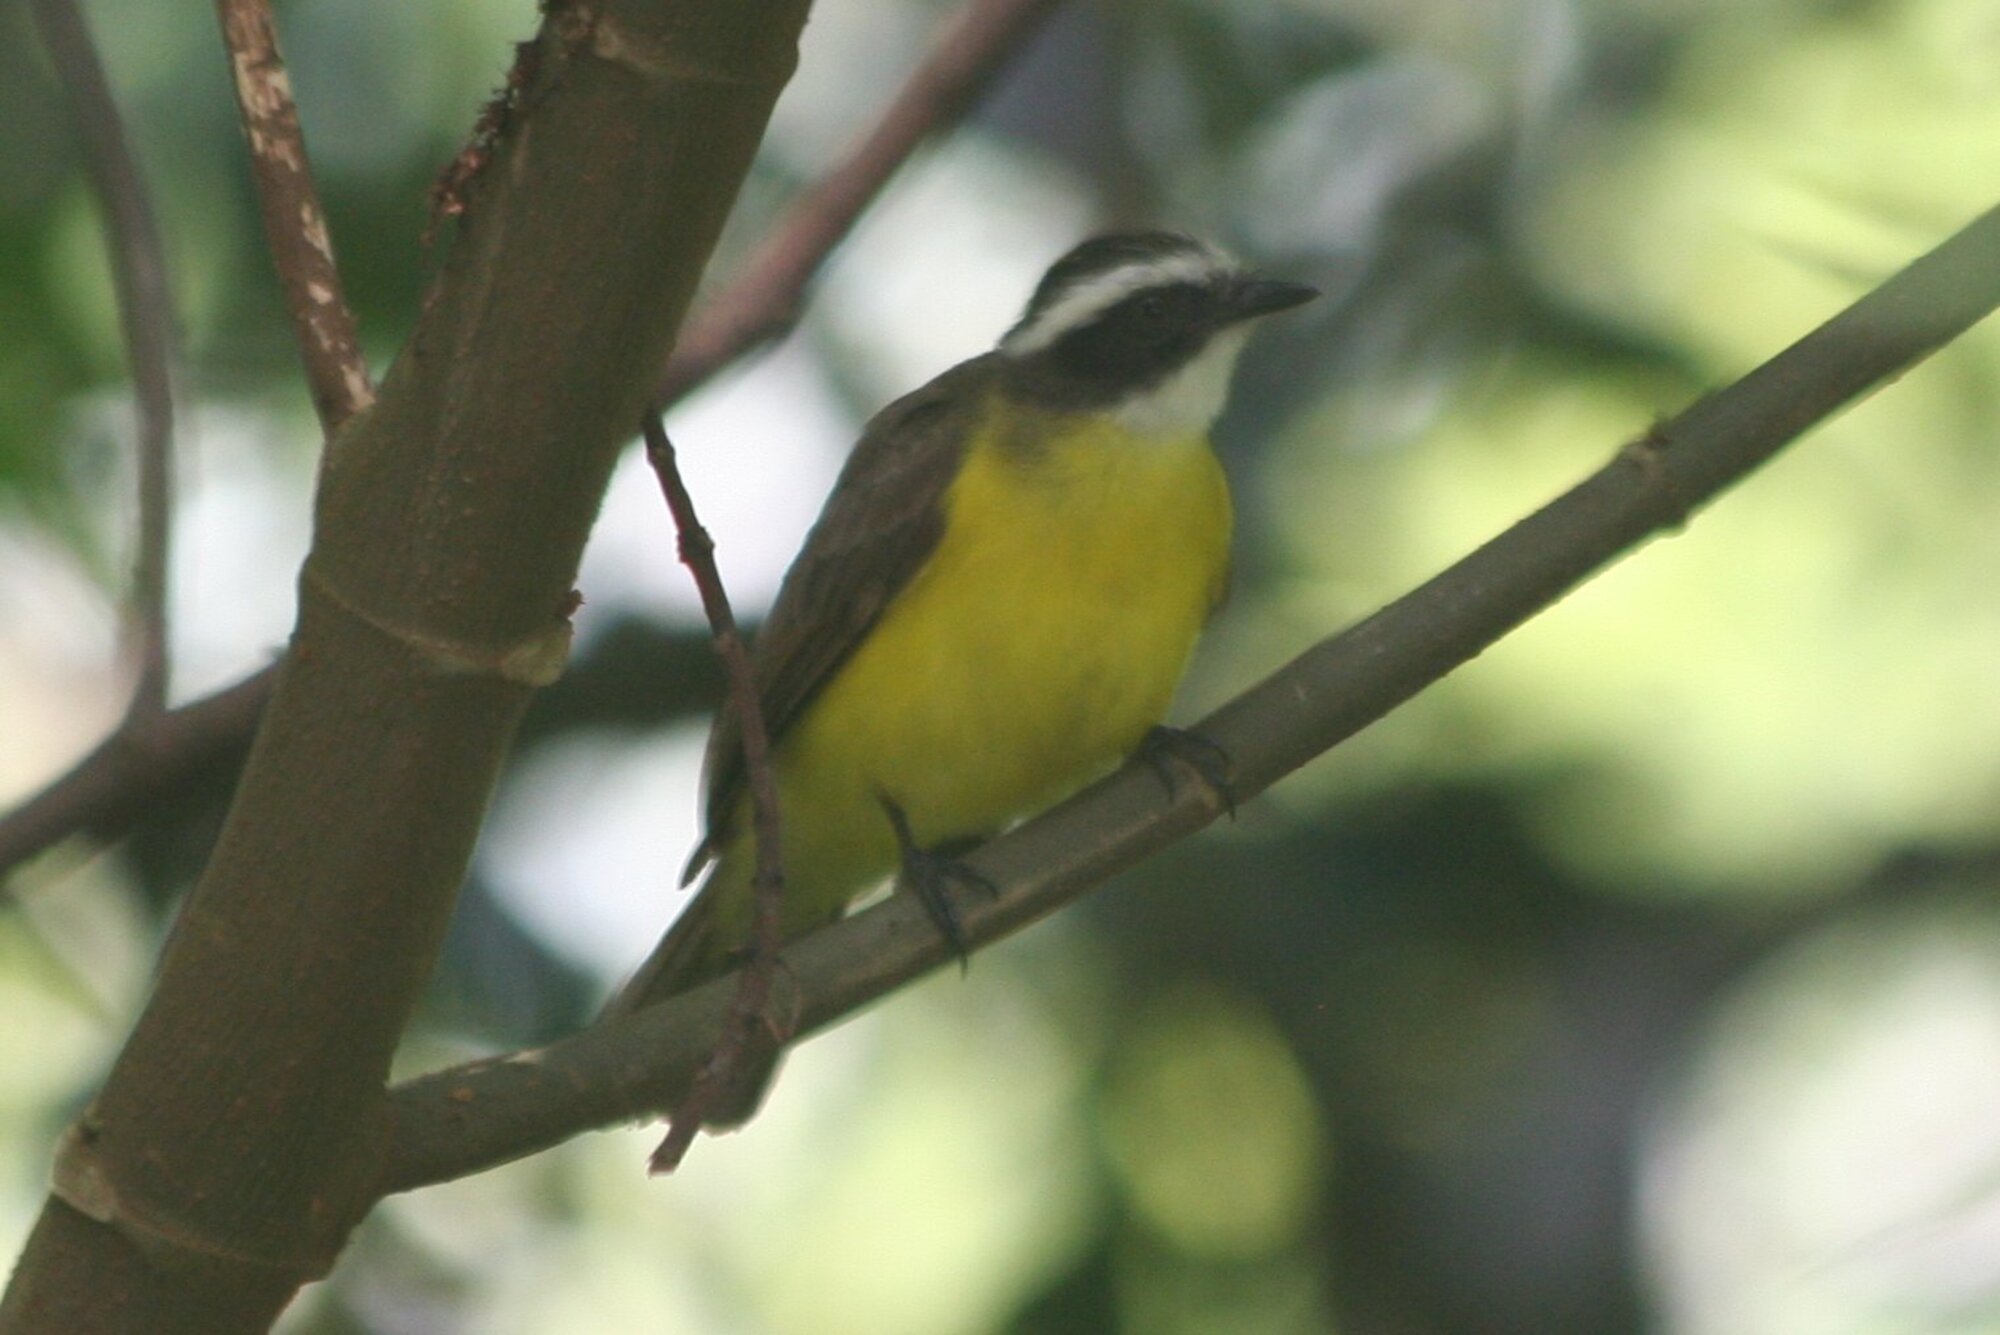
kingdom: Animalia
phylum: Chordata
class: Aves
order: Passeriformes
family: Tyrannidae
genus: Myiozetetes
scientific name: Myiozetetes cayanensis
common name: Rusty-margined flycatcher
